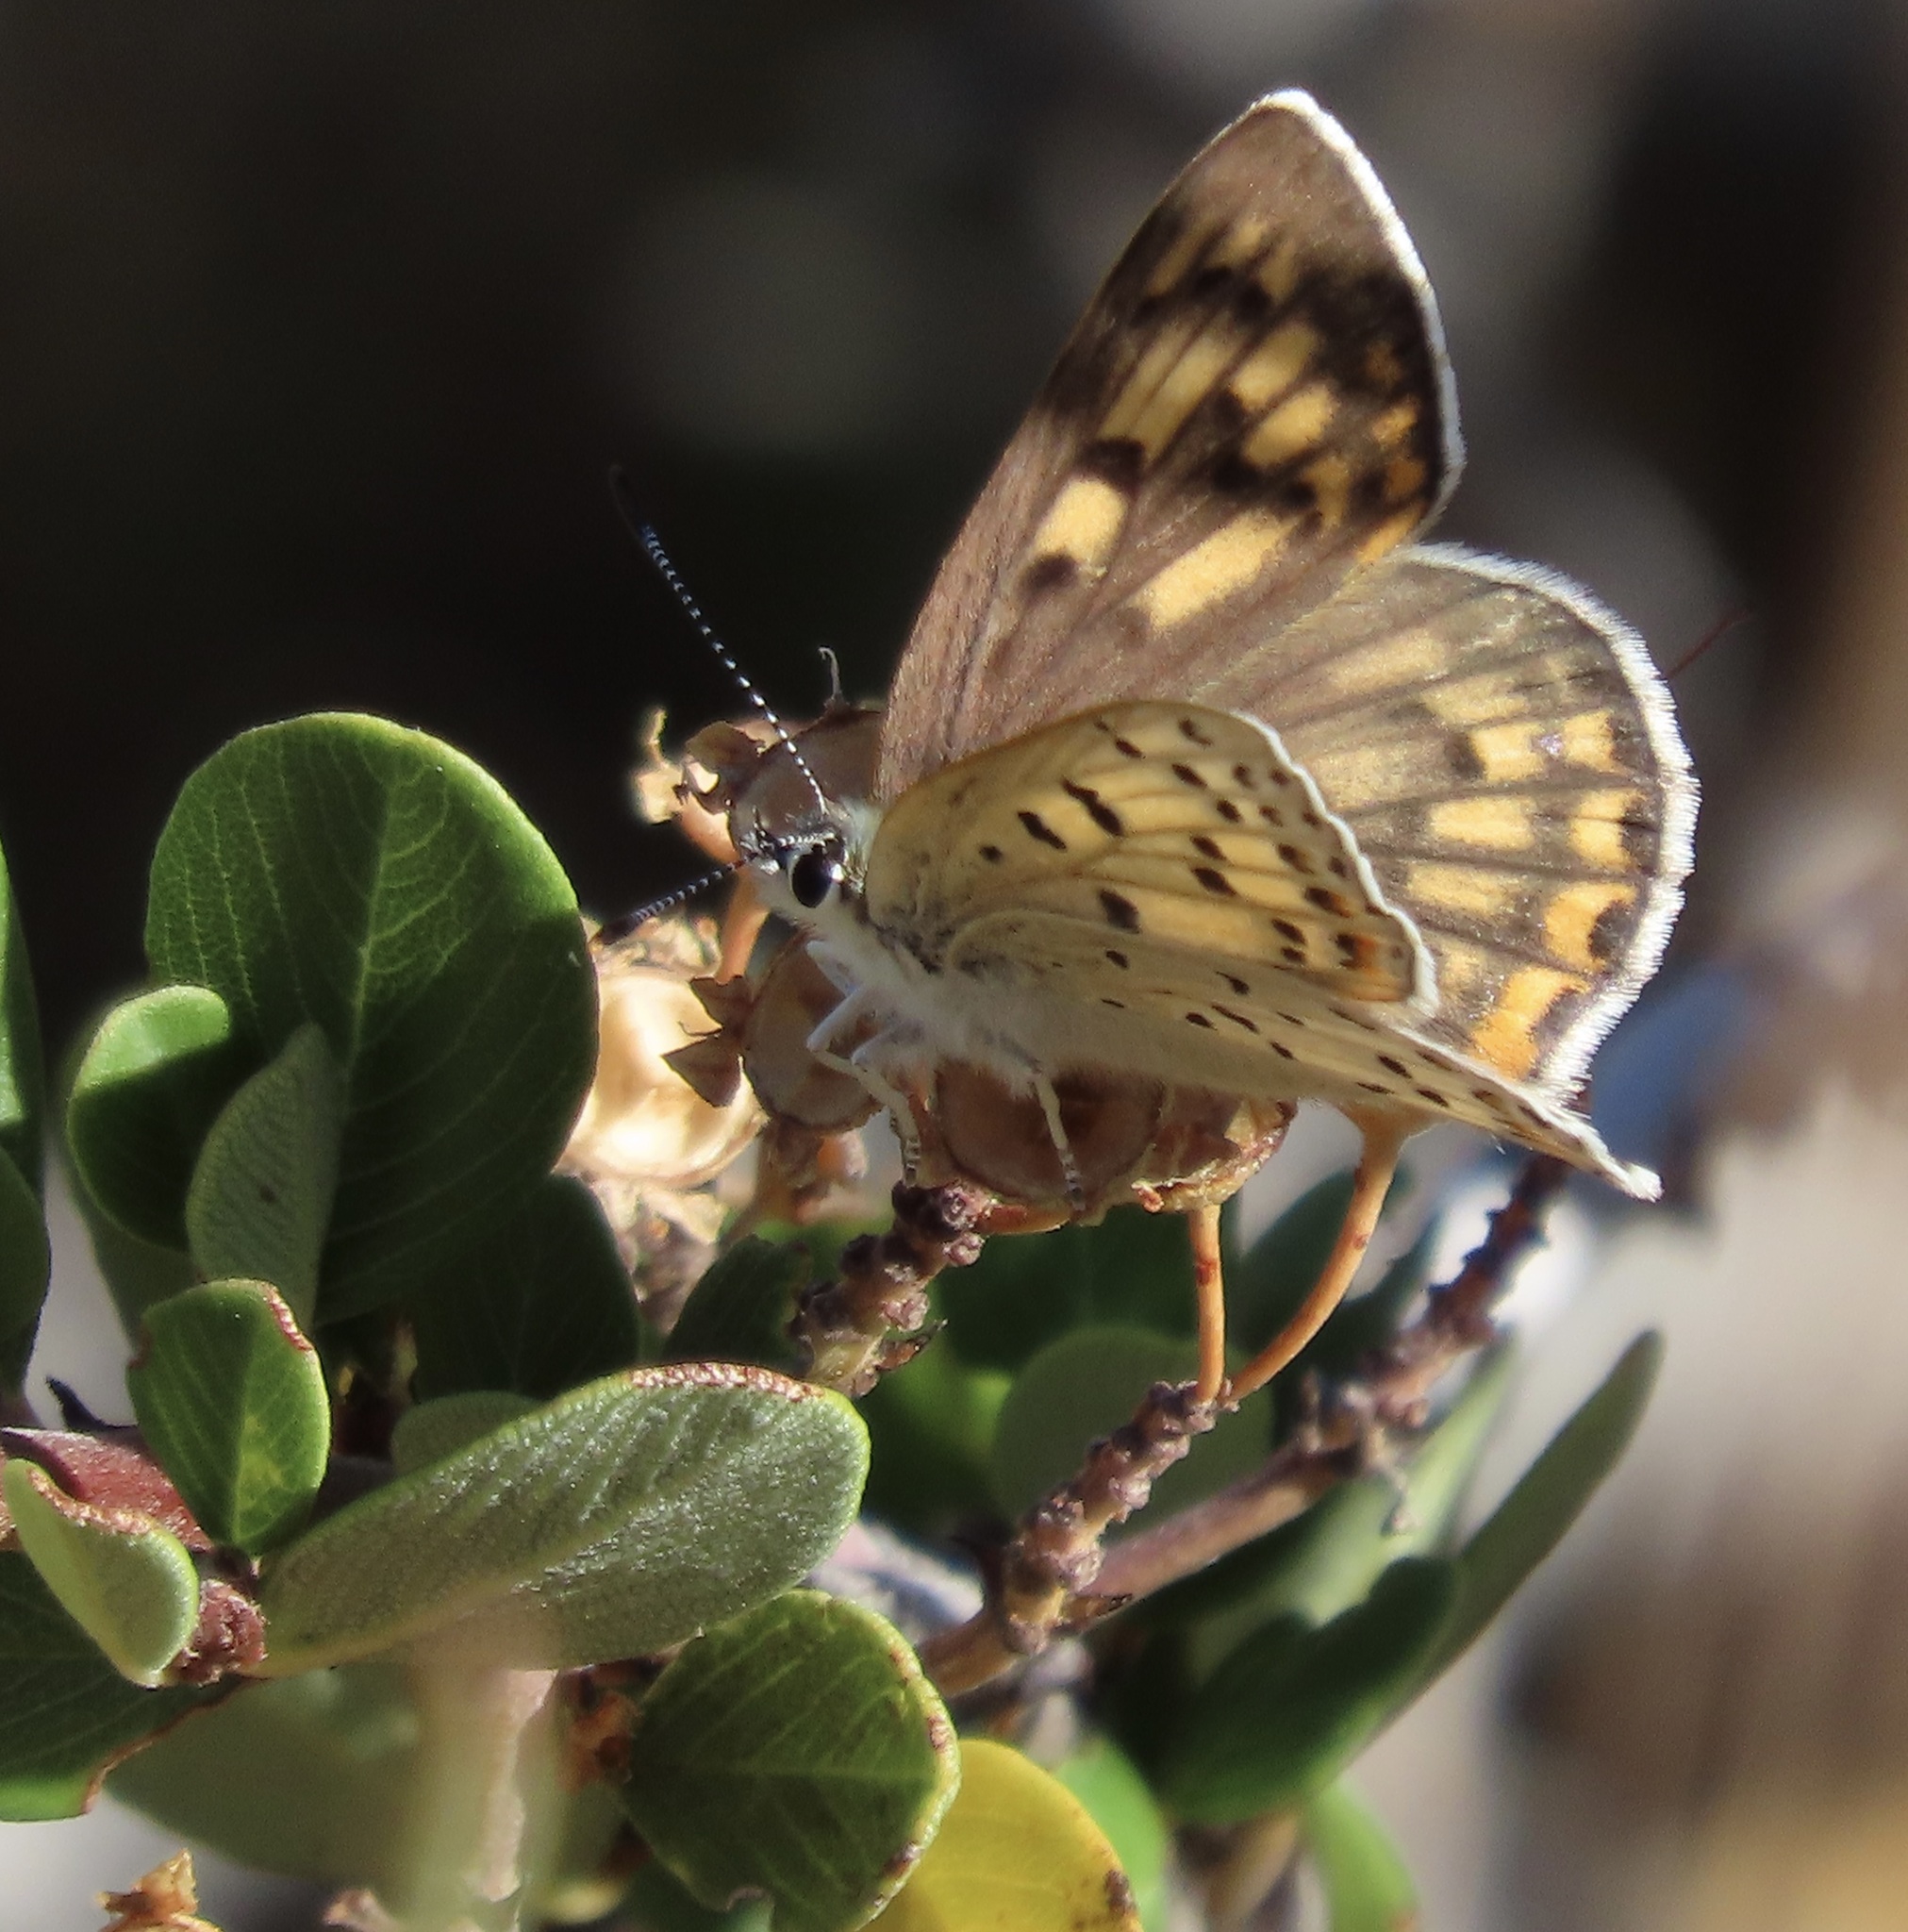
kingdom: Animalia
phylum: Arthropoda
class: Insecta
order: Lepidoptera
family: Lycaenidae
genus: Tharsalea
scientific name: Tharsalea gorgon
